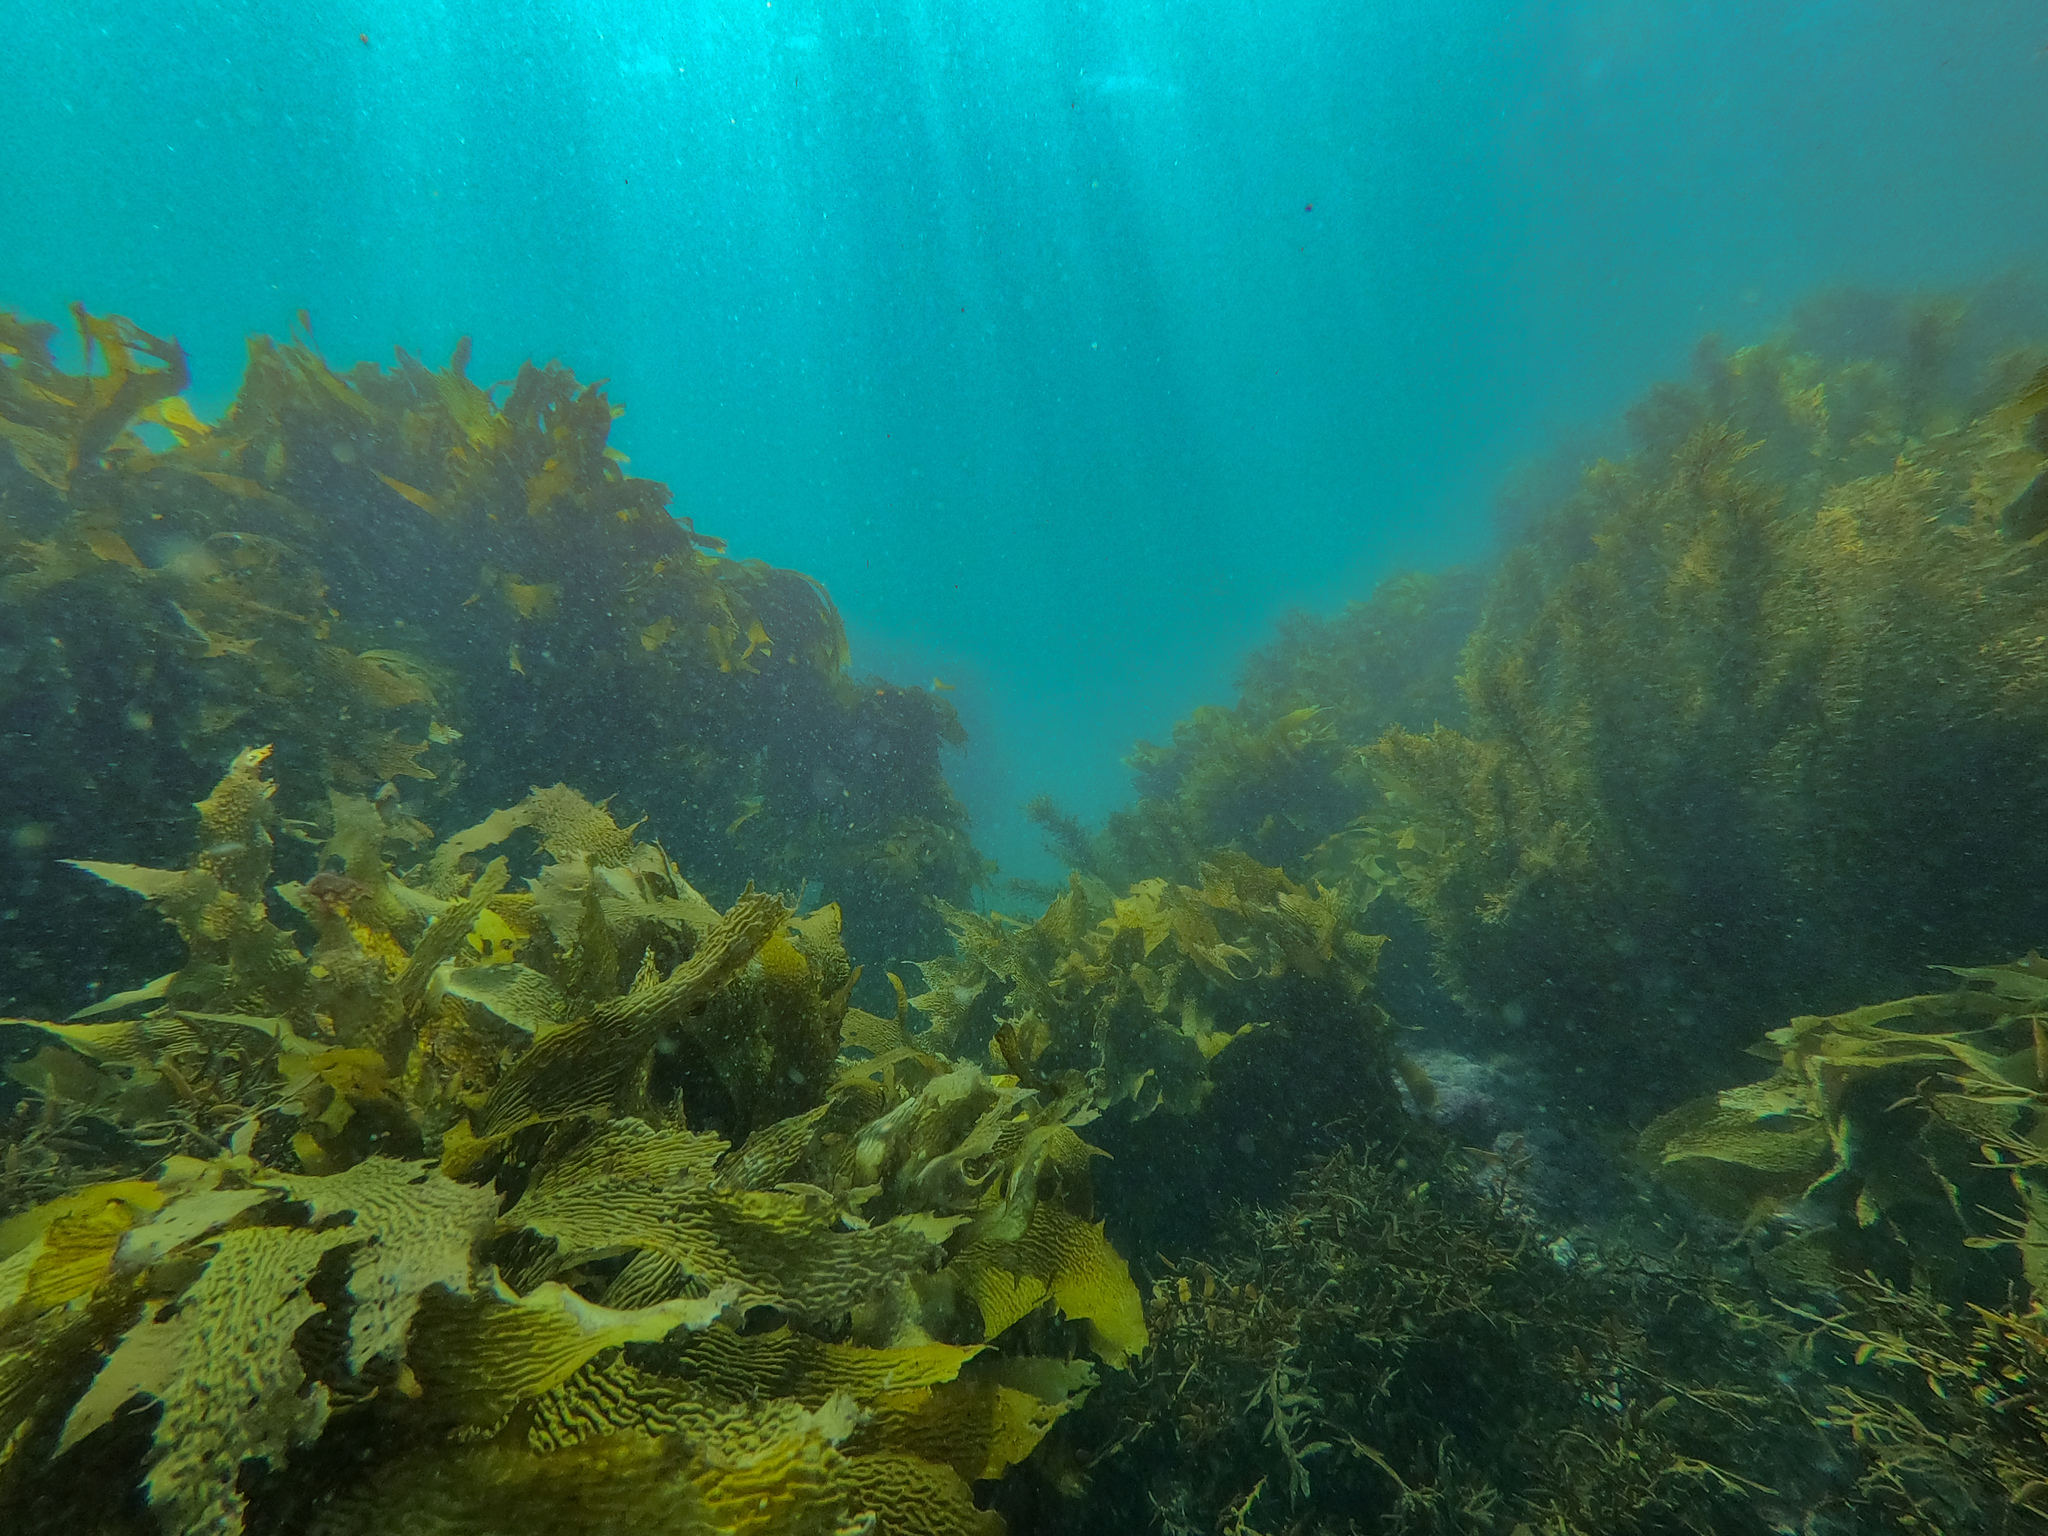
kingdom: Chromista
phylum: Ochrophyta
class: Phaeophyceae
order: Laminariales
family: Lessoniaceae
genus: Ecklonia
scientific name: Ecklonia radiata
